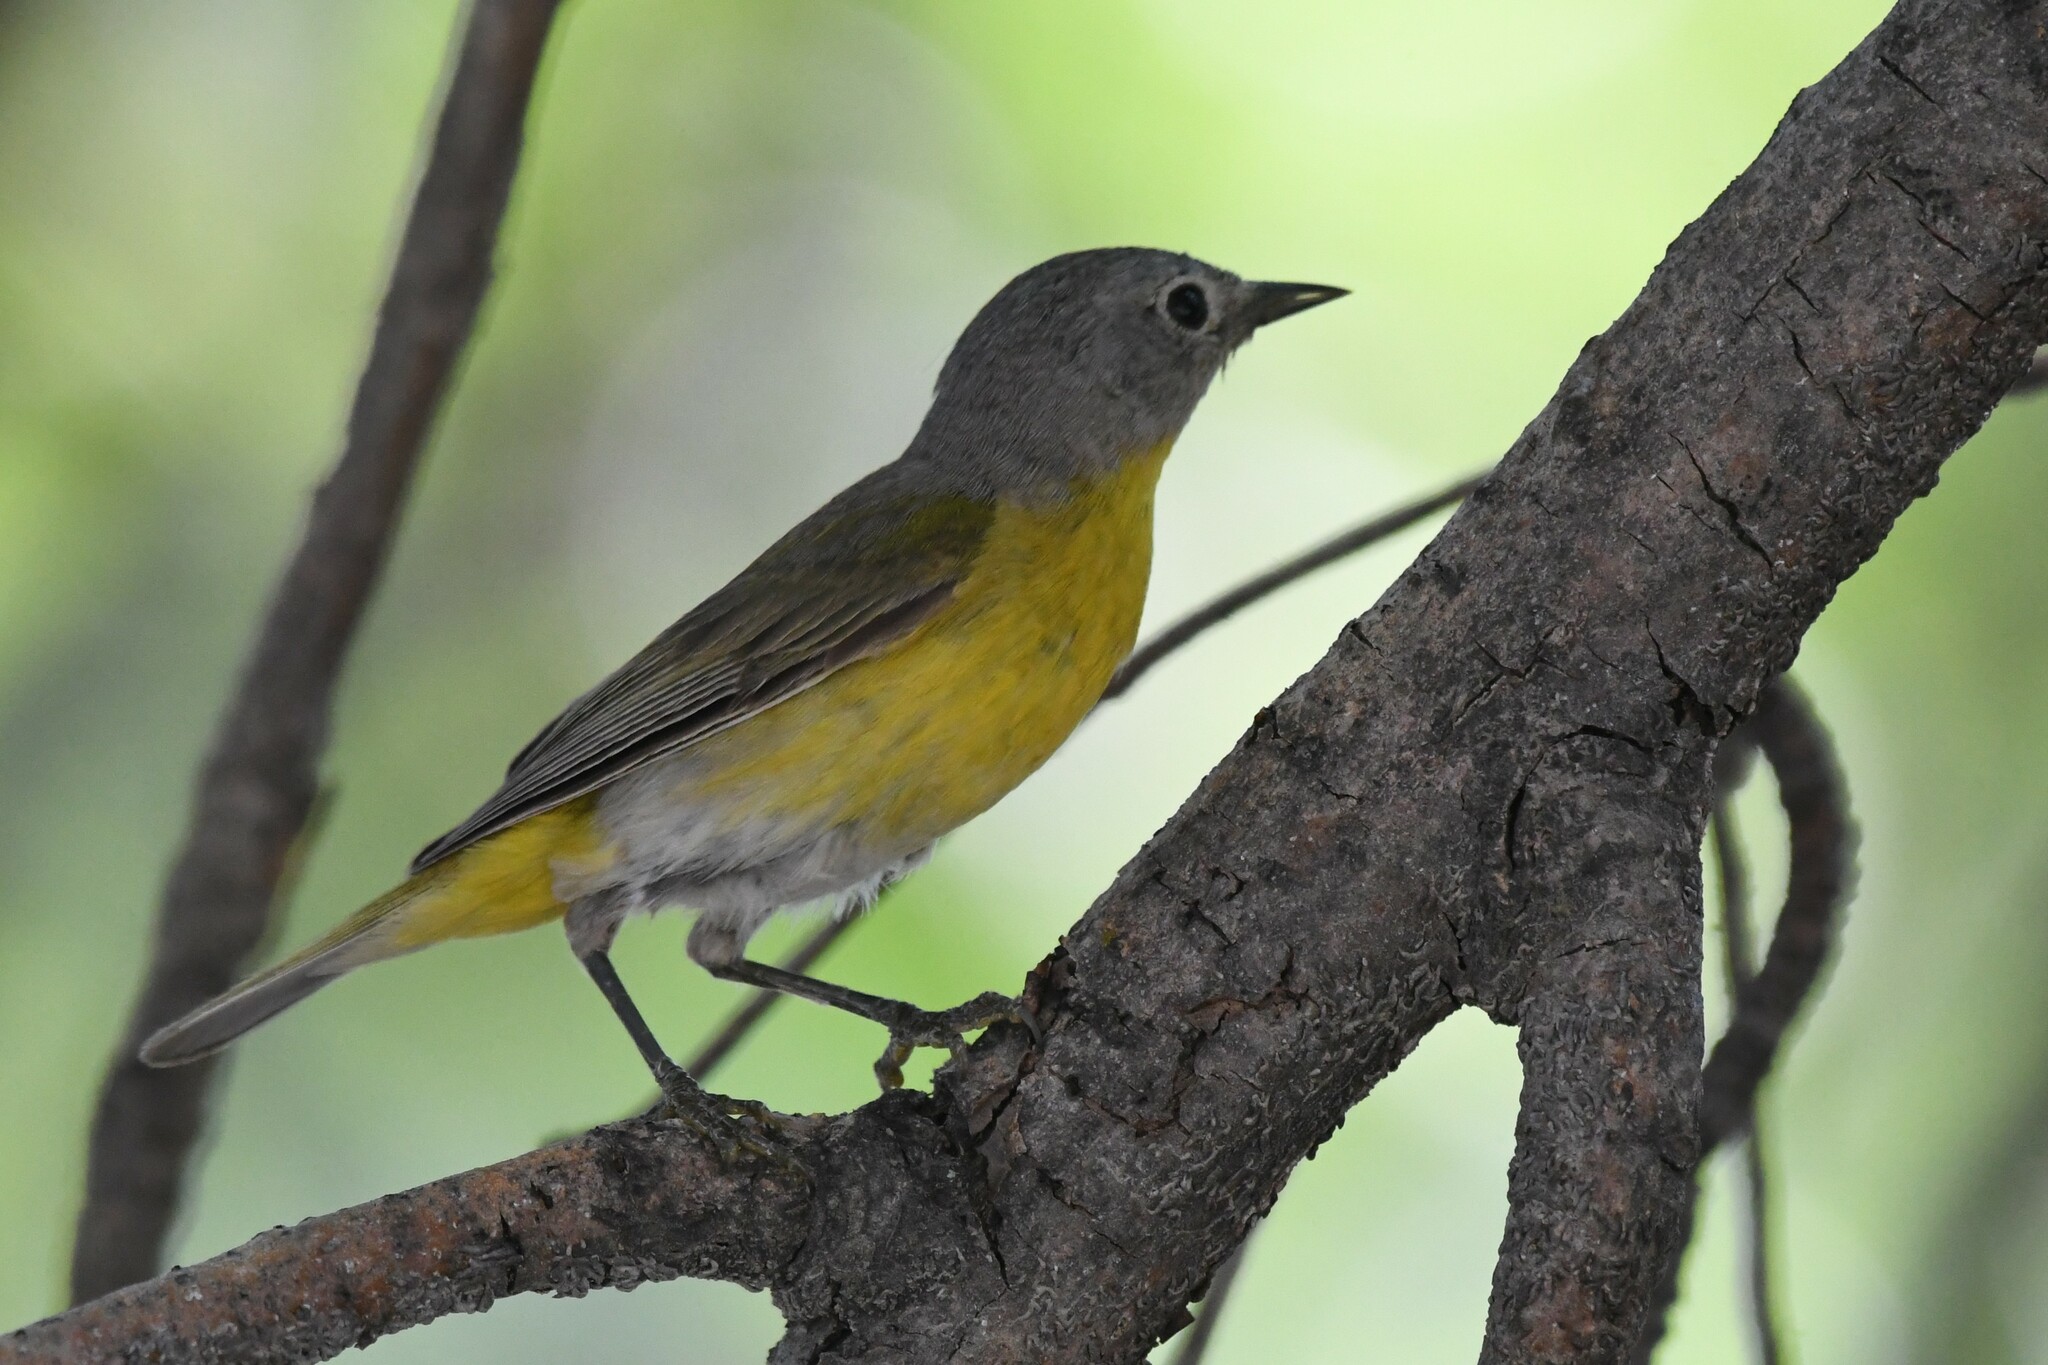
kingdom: Animalia
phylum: Chordata
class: Aves
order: Passeriformes
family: Parulidae
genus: Leiothlypis
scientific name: Leiothlypis ruficapilla
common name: Nashville warbler
